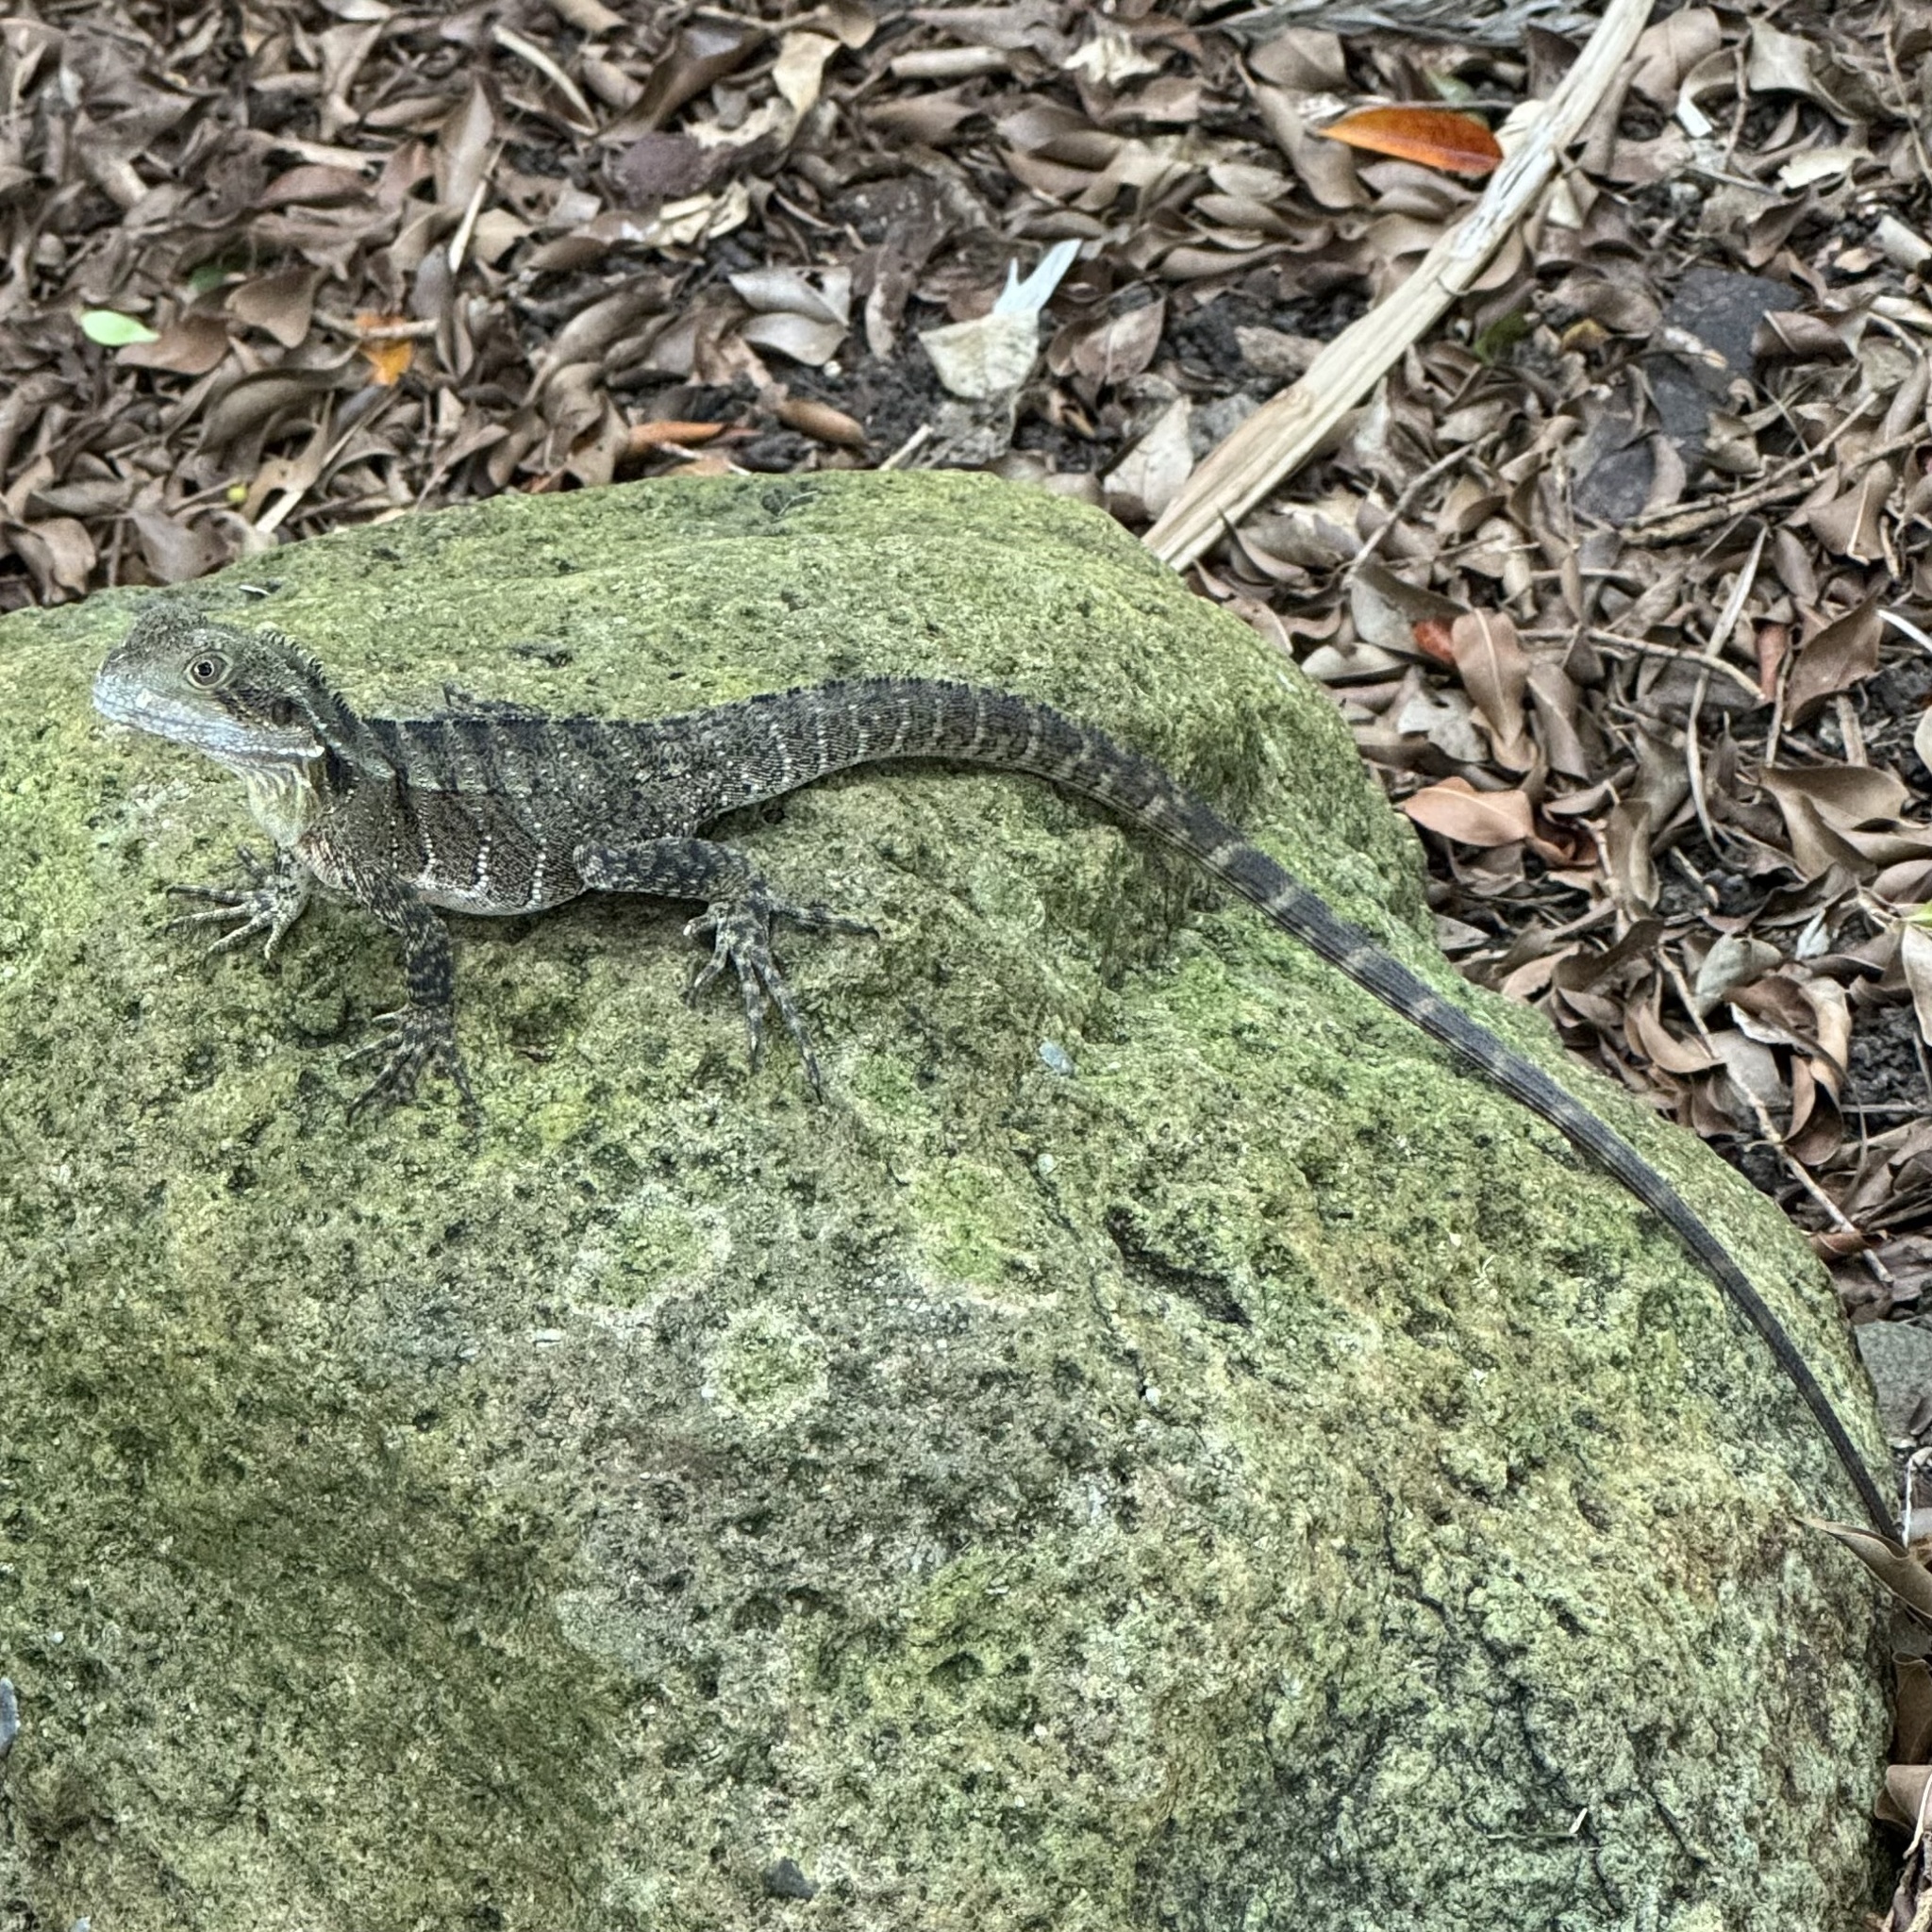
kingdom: Animalia
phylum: Chordata
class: Squamata
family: Agamidae
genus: Intellagama
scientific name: Intellagama lesueurii
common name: Eastern water dragon
